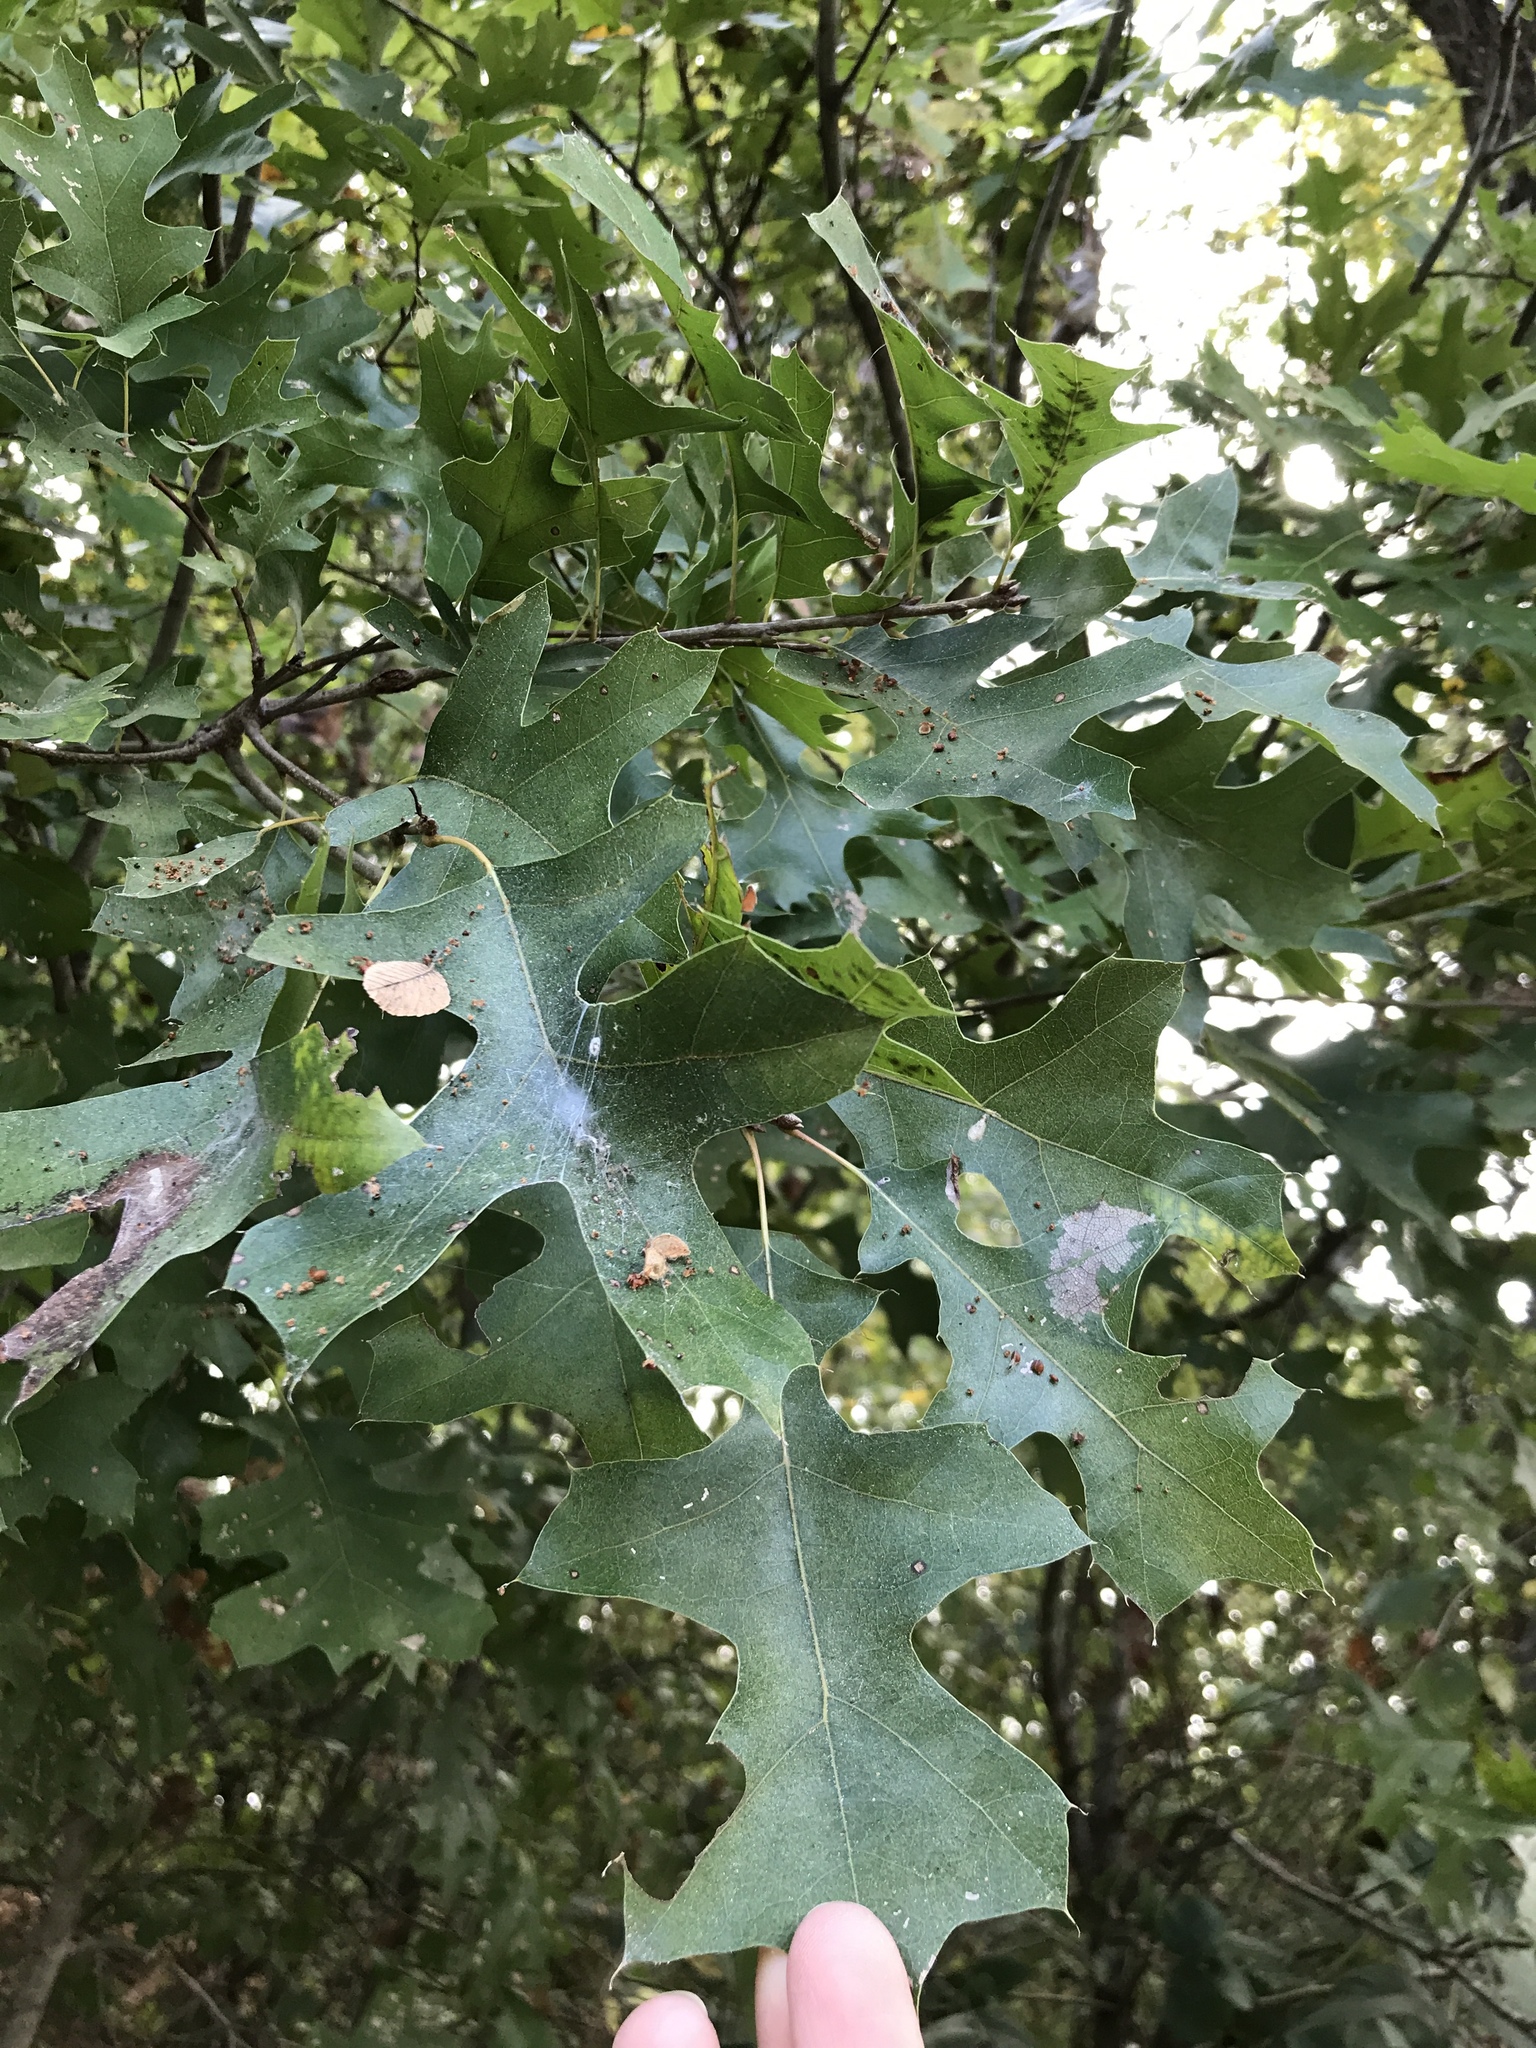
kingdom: Plantae
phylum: Tracheophyta
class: Magnoliopsida
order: Fagales
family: Fagaceae
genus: Quercus
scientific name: Quercus shumardii
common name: Shumard oak
